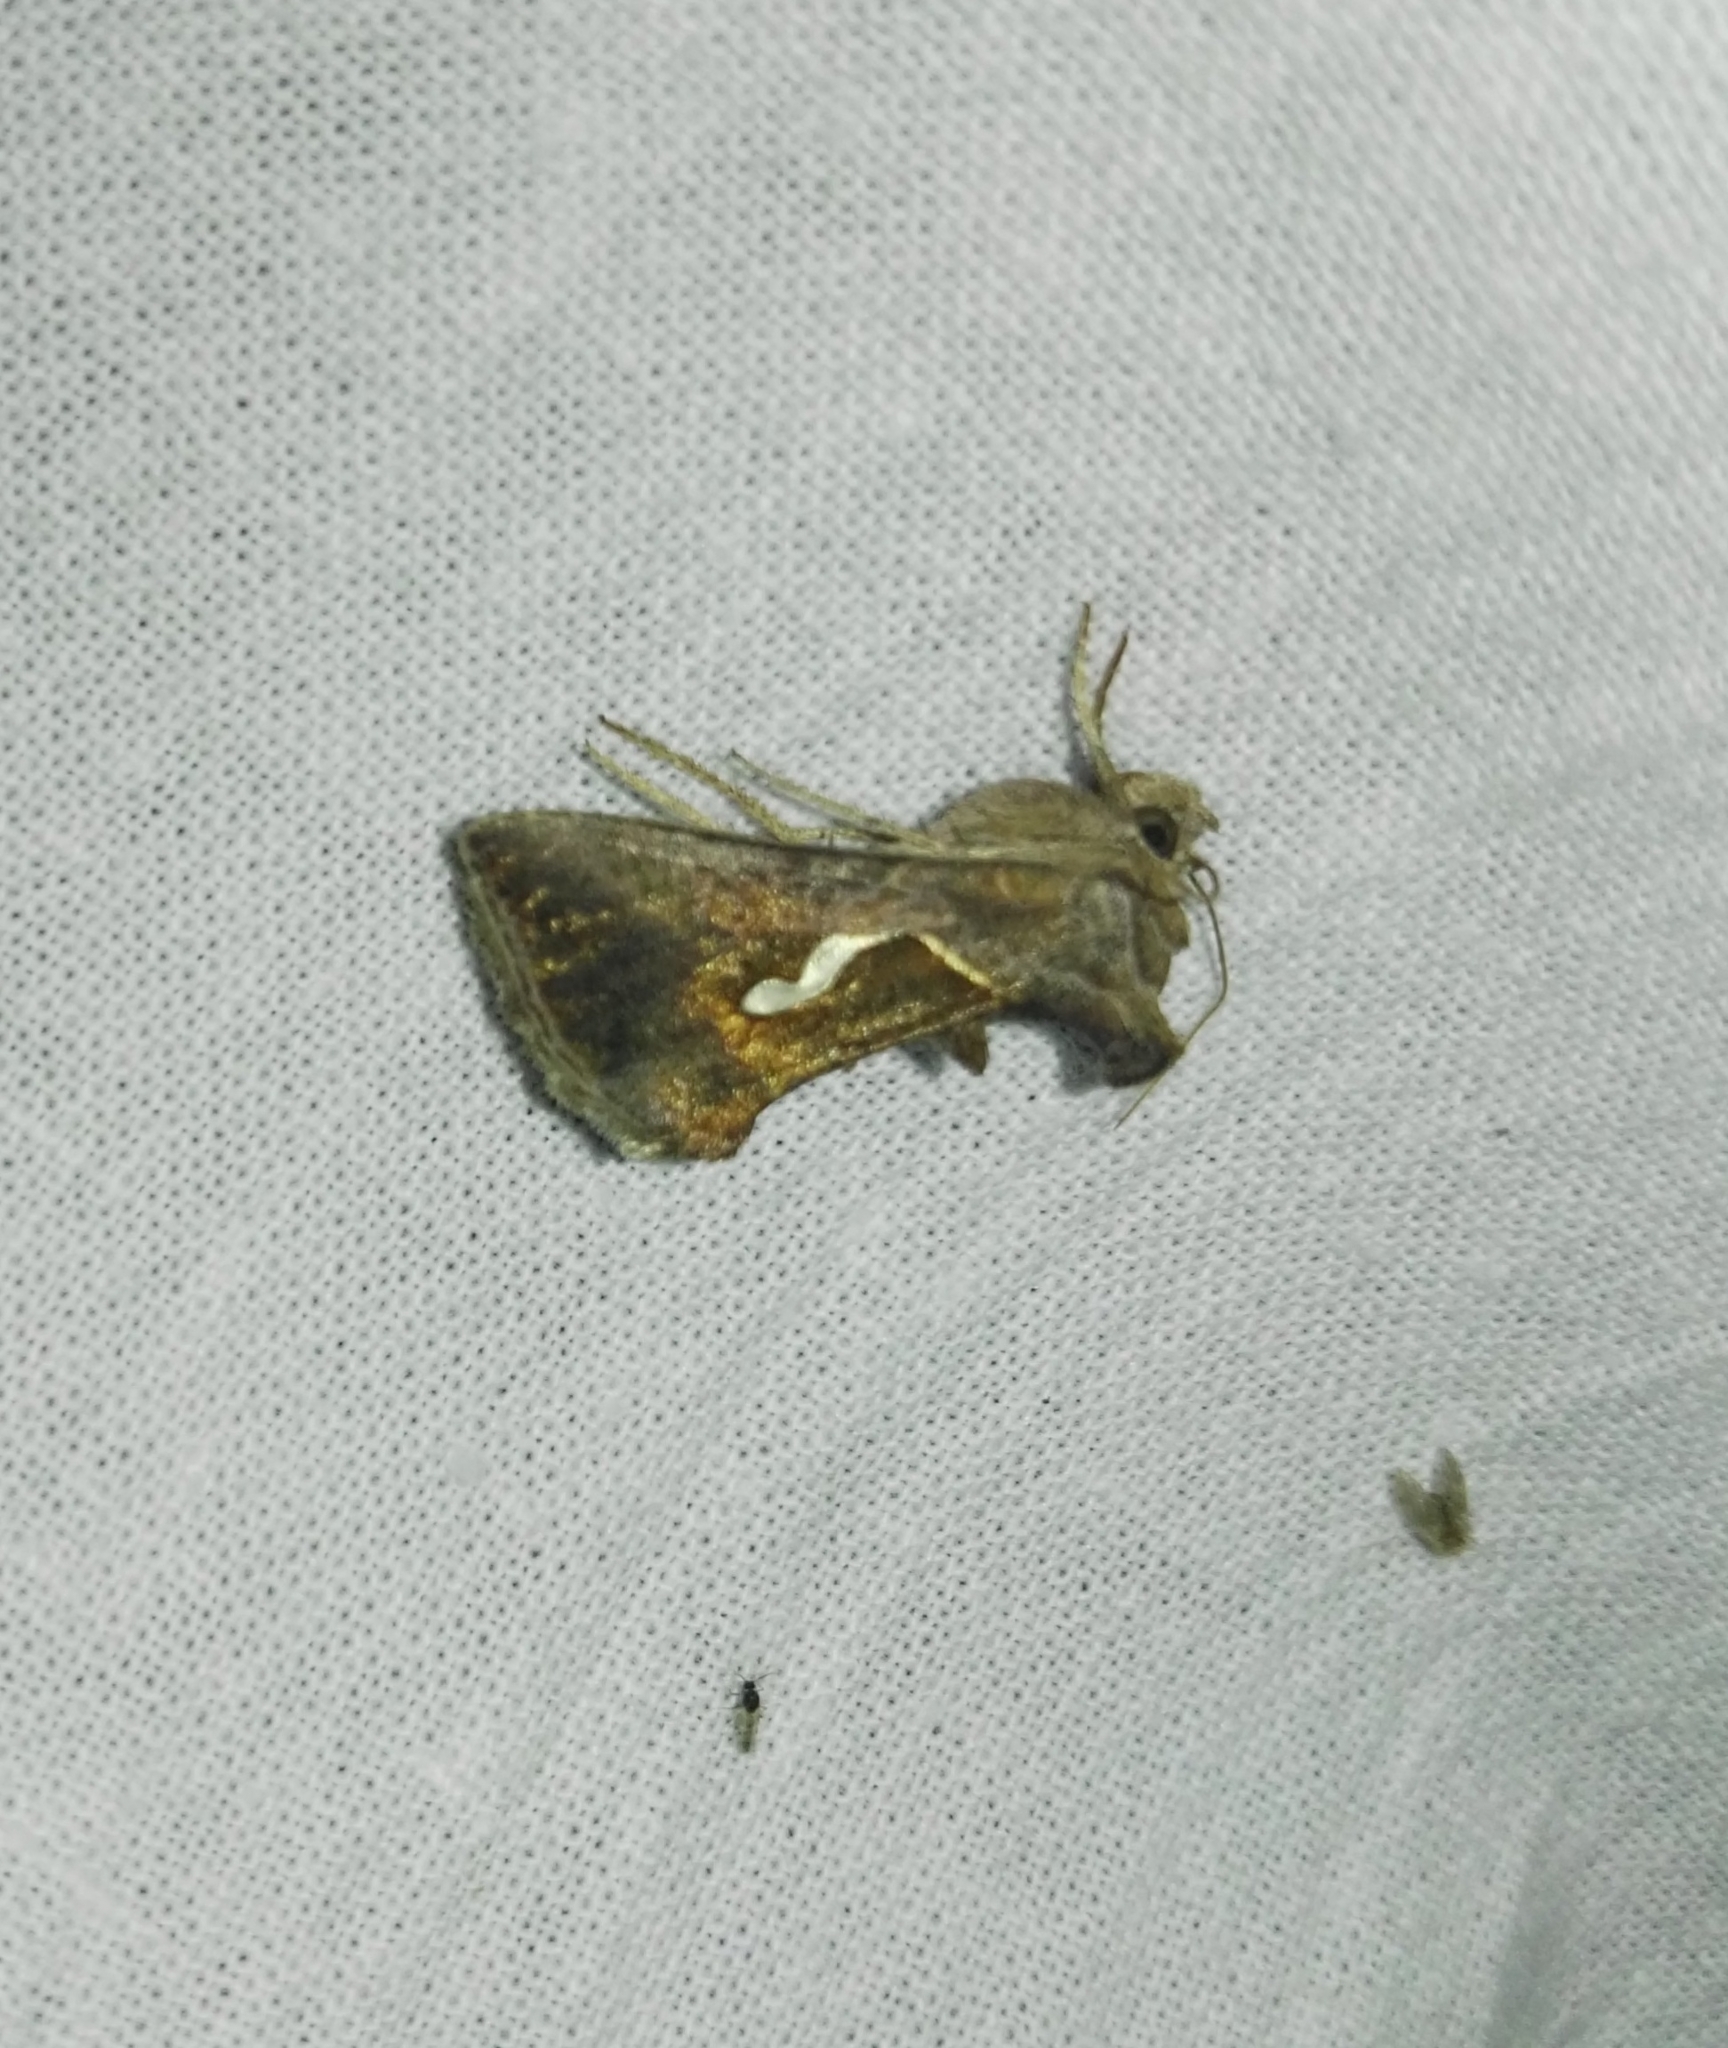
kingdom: Animalia
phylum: Arthropoda
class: Insecta
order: Lepidoptera
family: Noctuidae
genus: Macdunnoughia
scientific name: Macdunnoughia confusa
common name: Dewick's plusia
